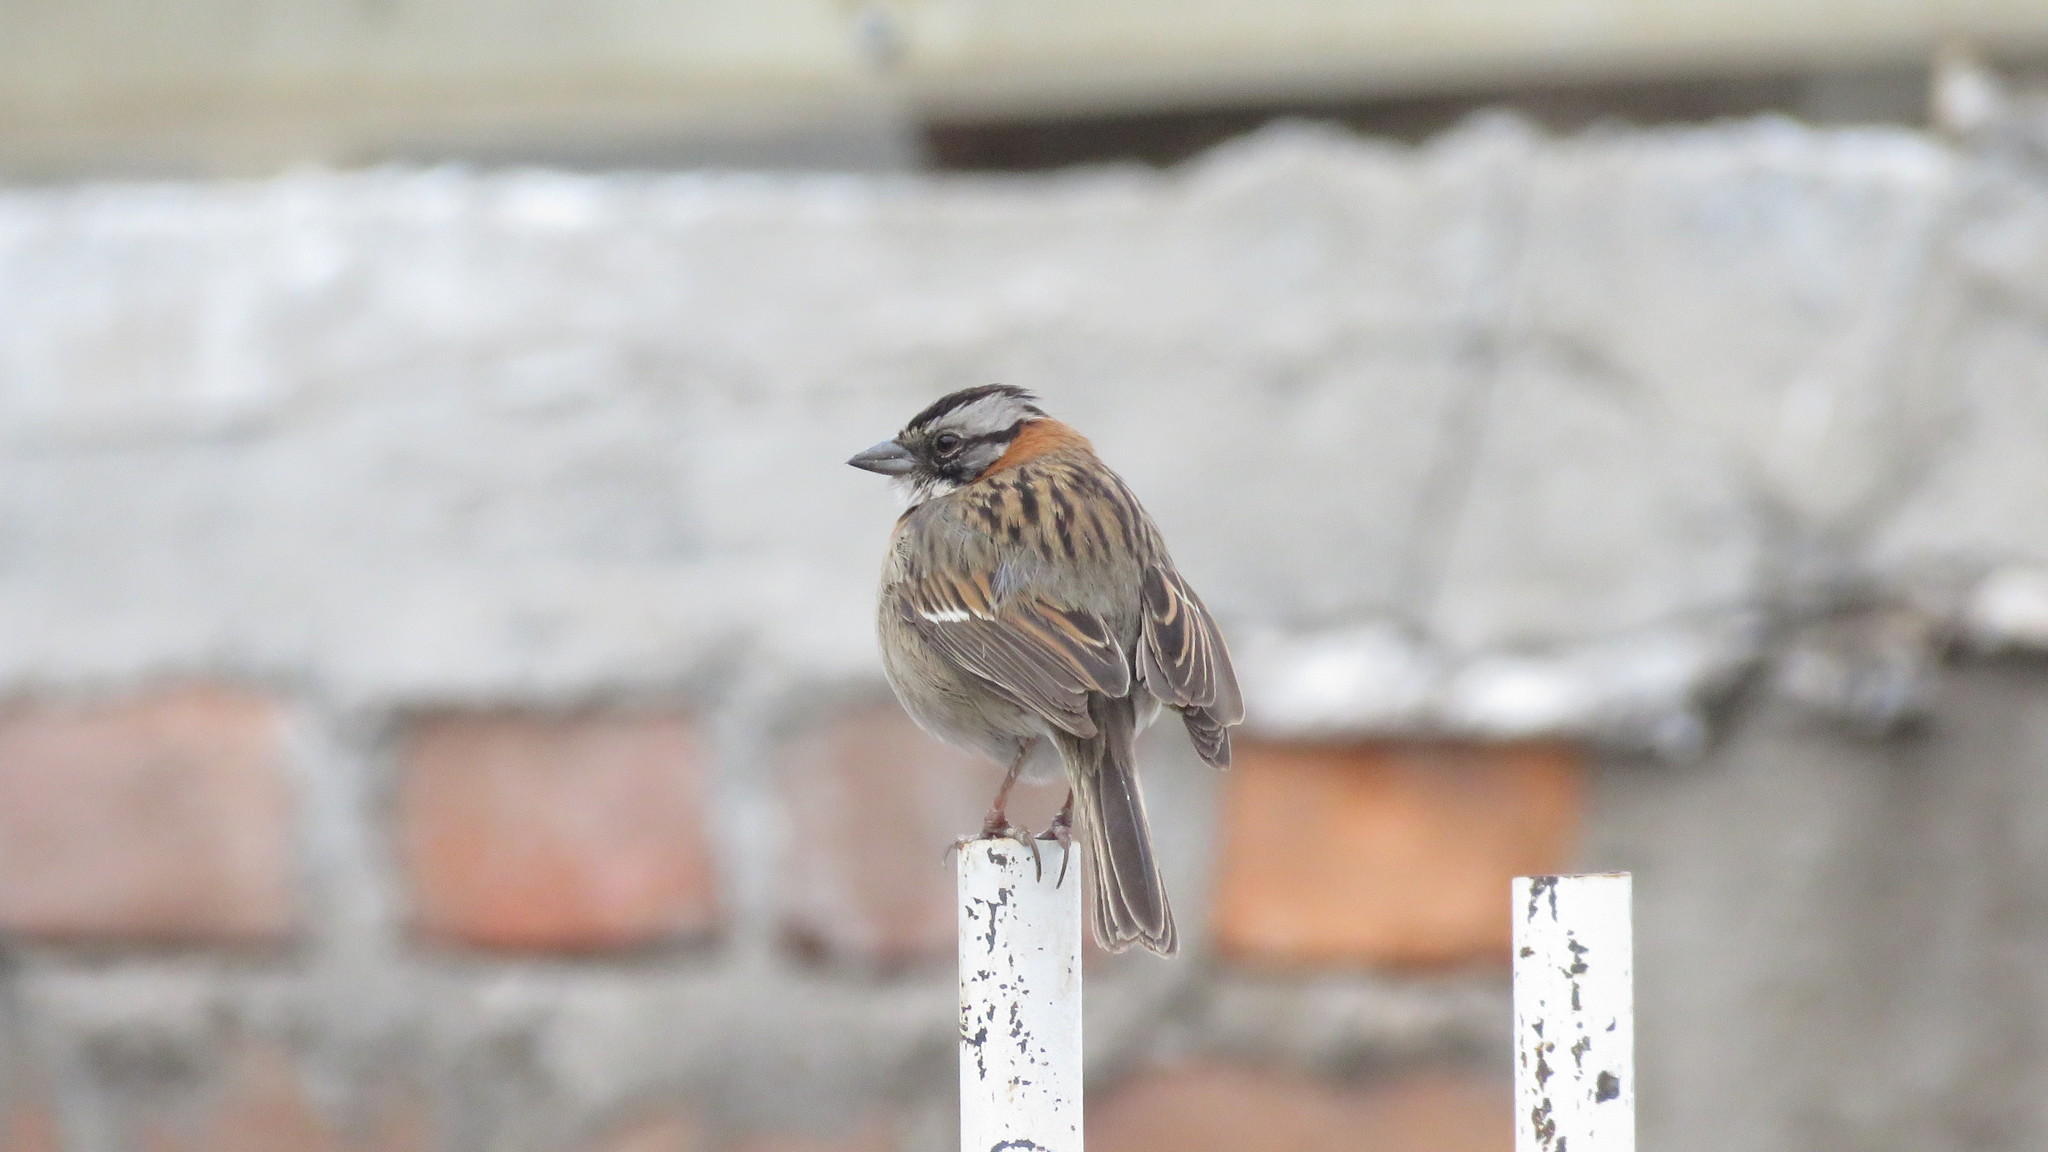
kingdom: Animalia
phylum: Chordata
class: Aves
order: Passeriformes
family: Passerellidae
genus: Zonotrichia
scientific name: Zonotrichia capensis
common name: Rufous-collared sparrow
